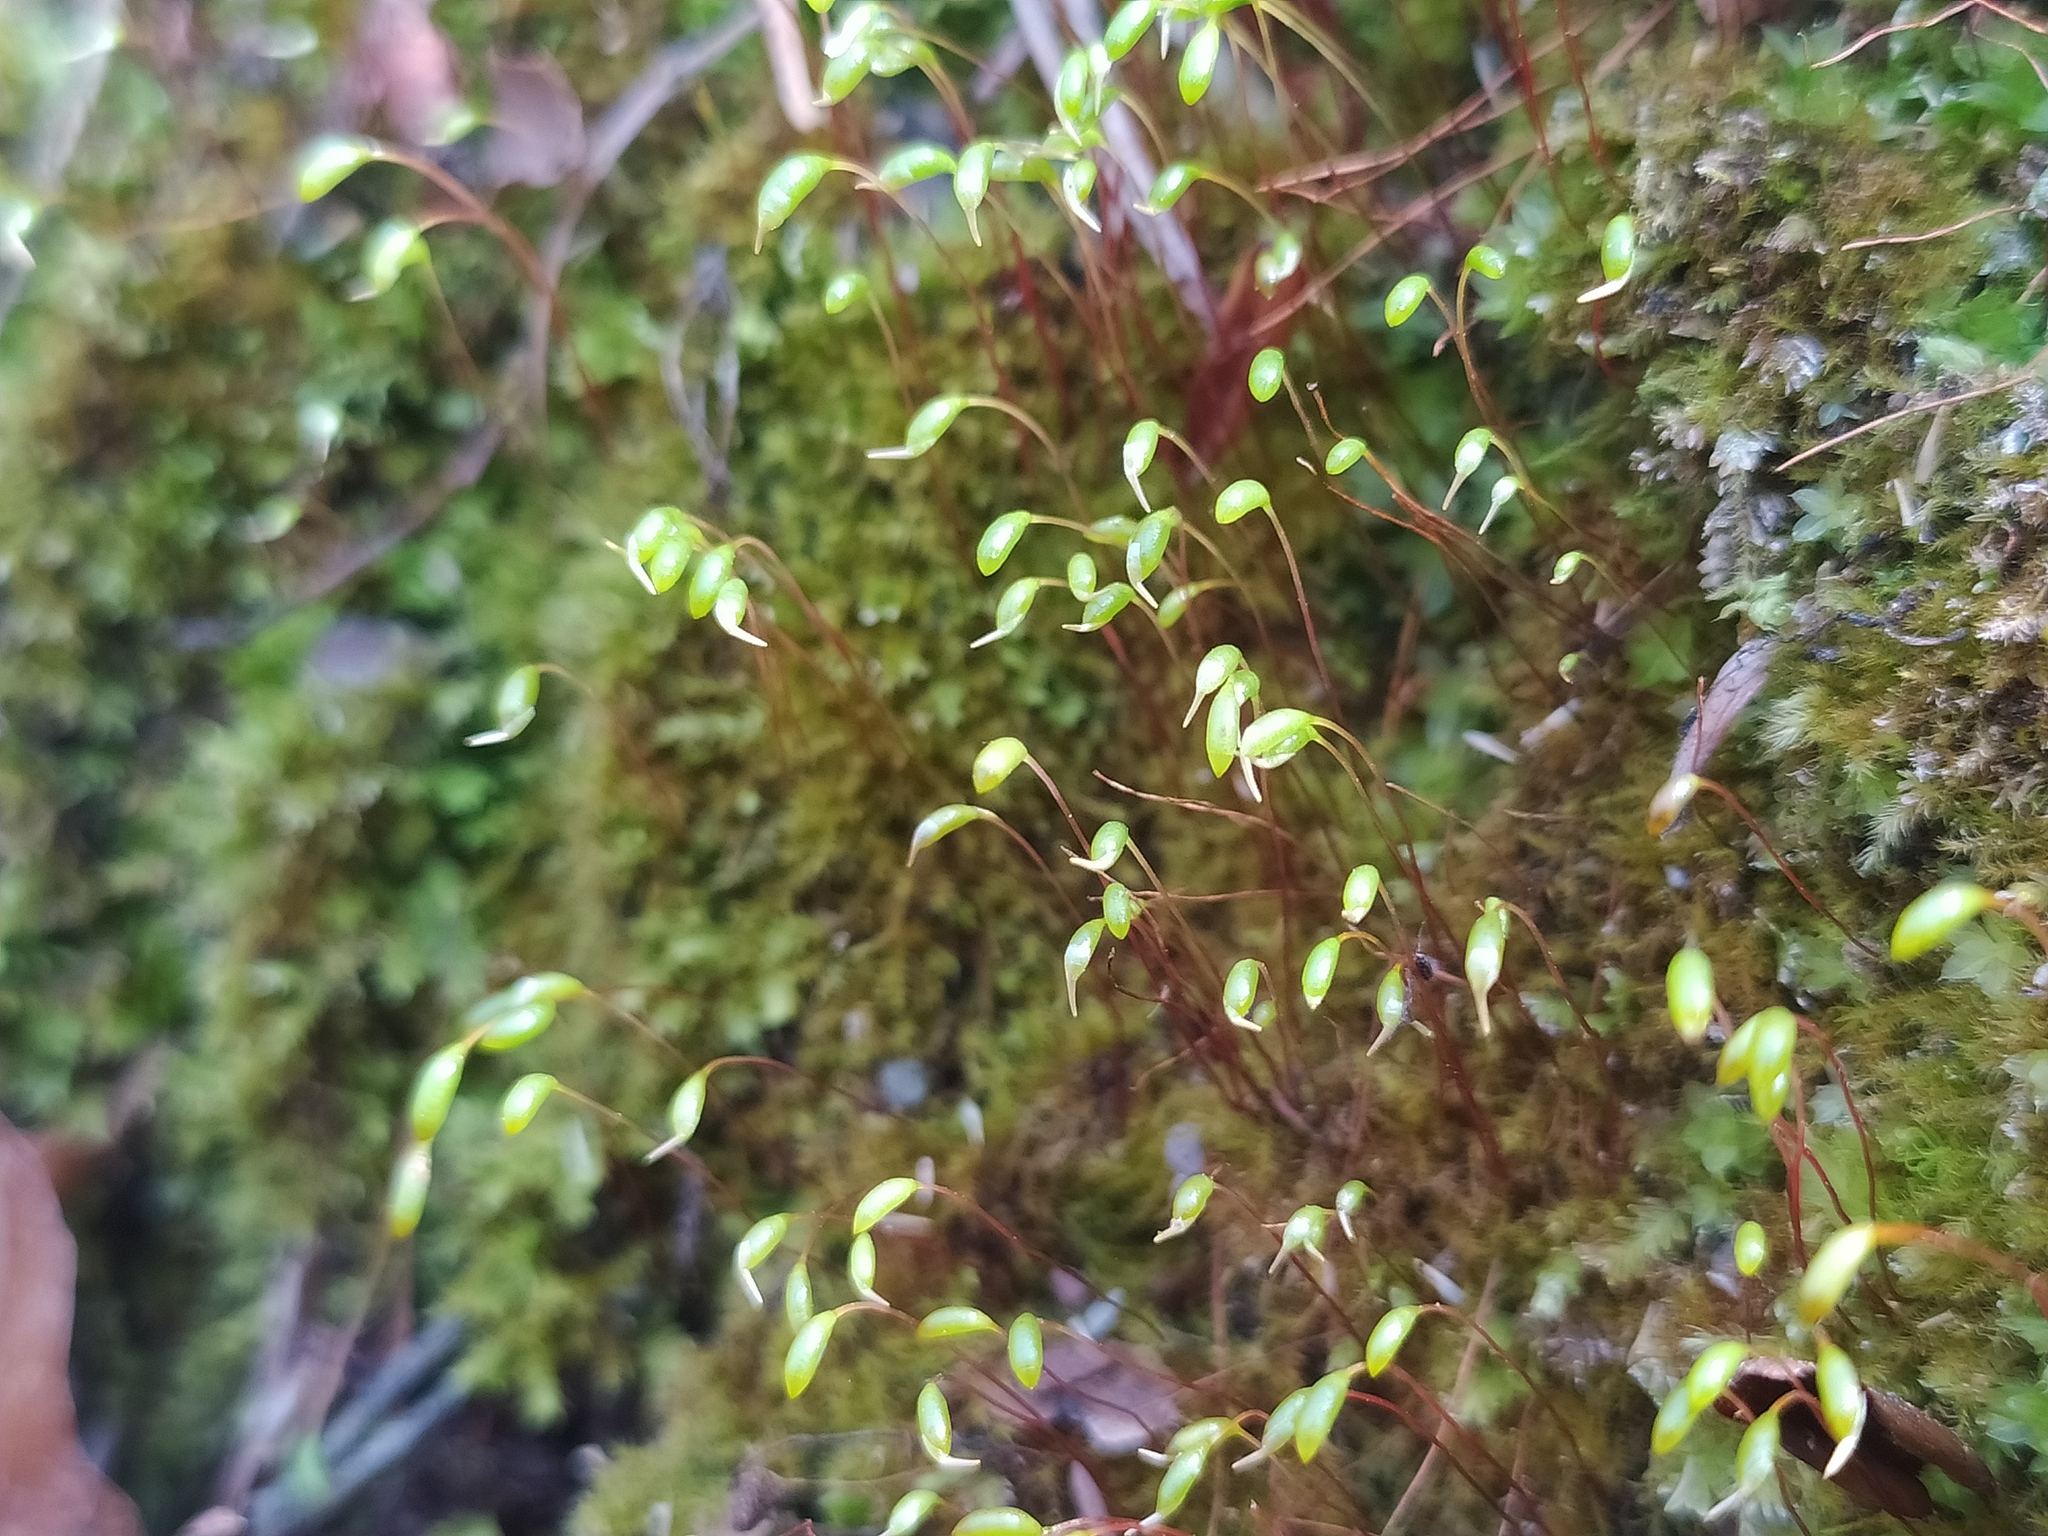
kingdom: Plantae
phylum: Bryophyta
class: Bryopsida
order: Hypnales
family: Amblystegiaceae
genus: Amblystegium
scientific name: Amblystegium serpens
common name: Jurkatzka's feather moss
